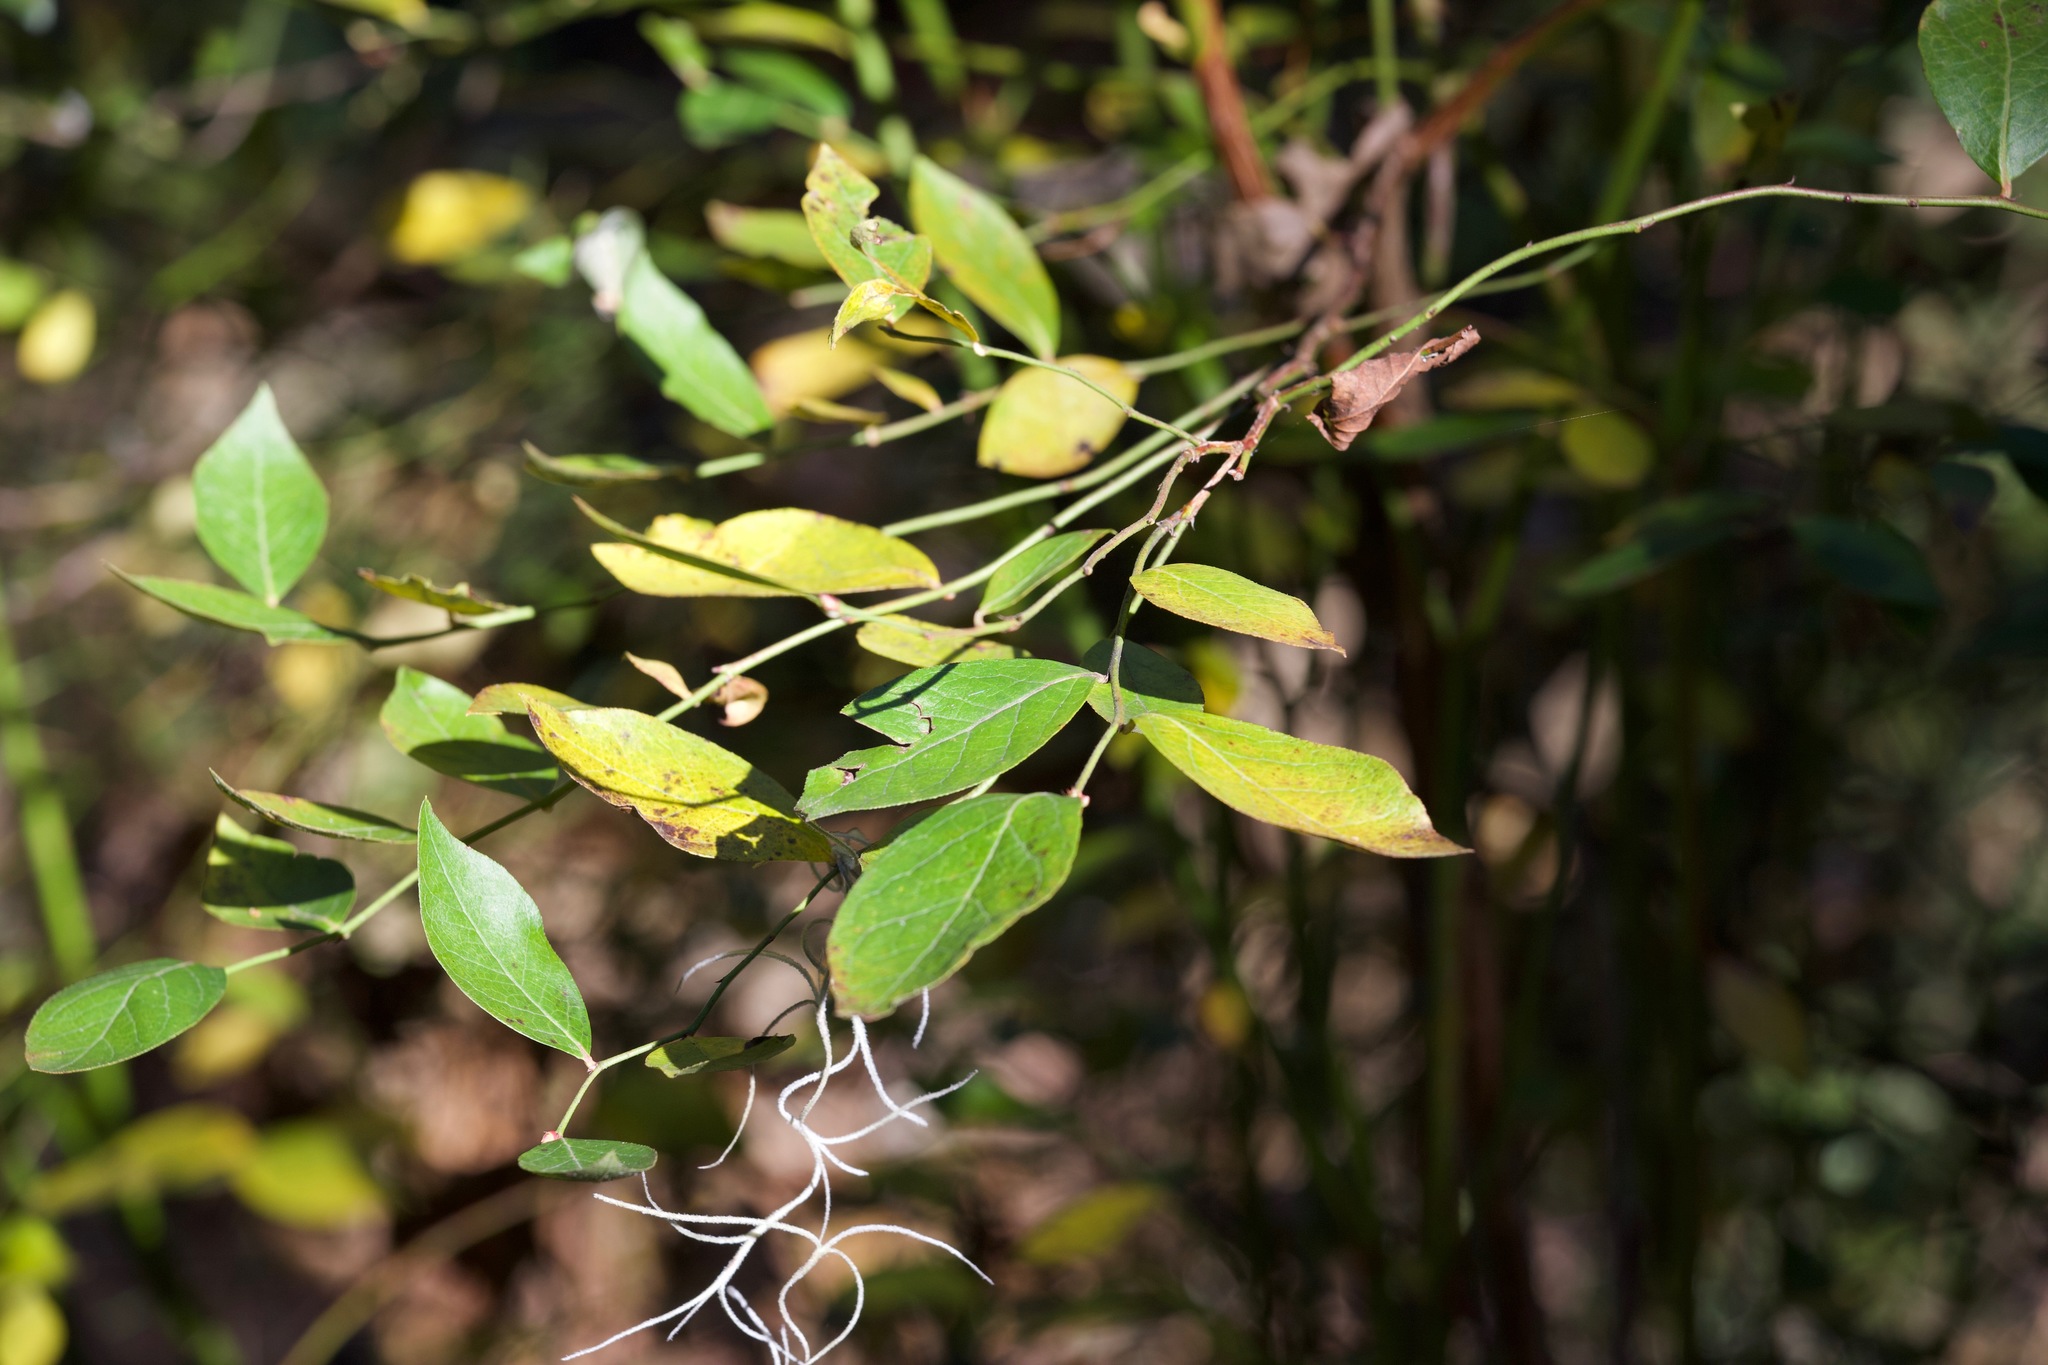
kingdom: Plantae
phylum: Tracheophyta
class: Magnoliopsida
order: Ericales
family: Ericaceae
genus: Vaccinium
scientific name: Vaccinium corymbosum
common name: Blueberry
